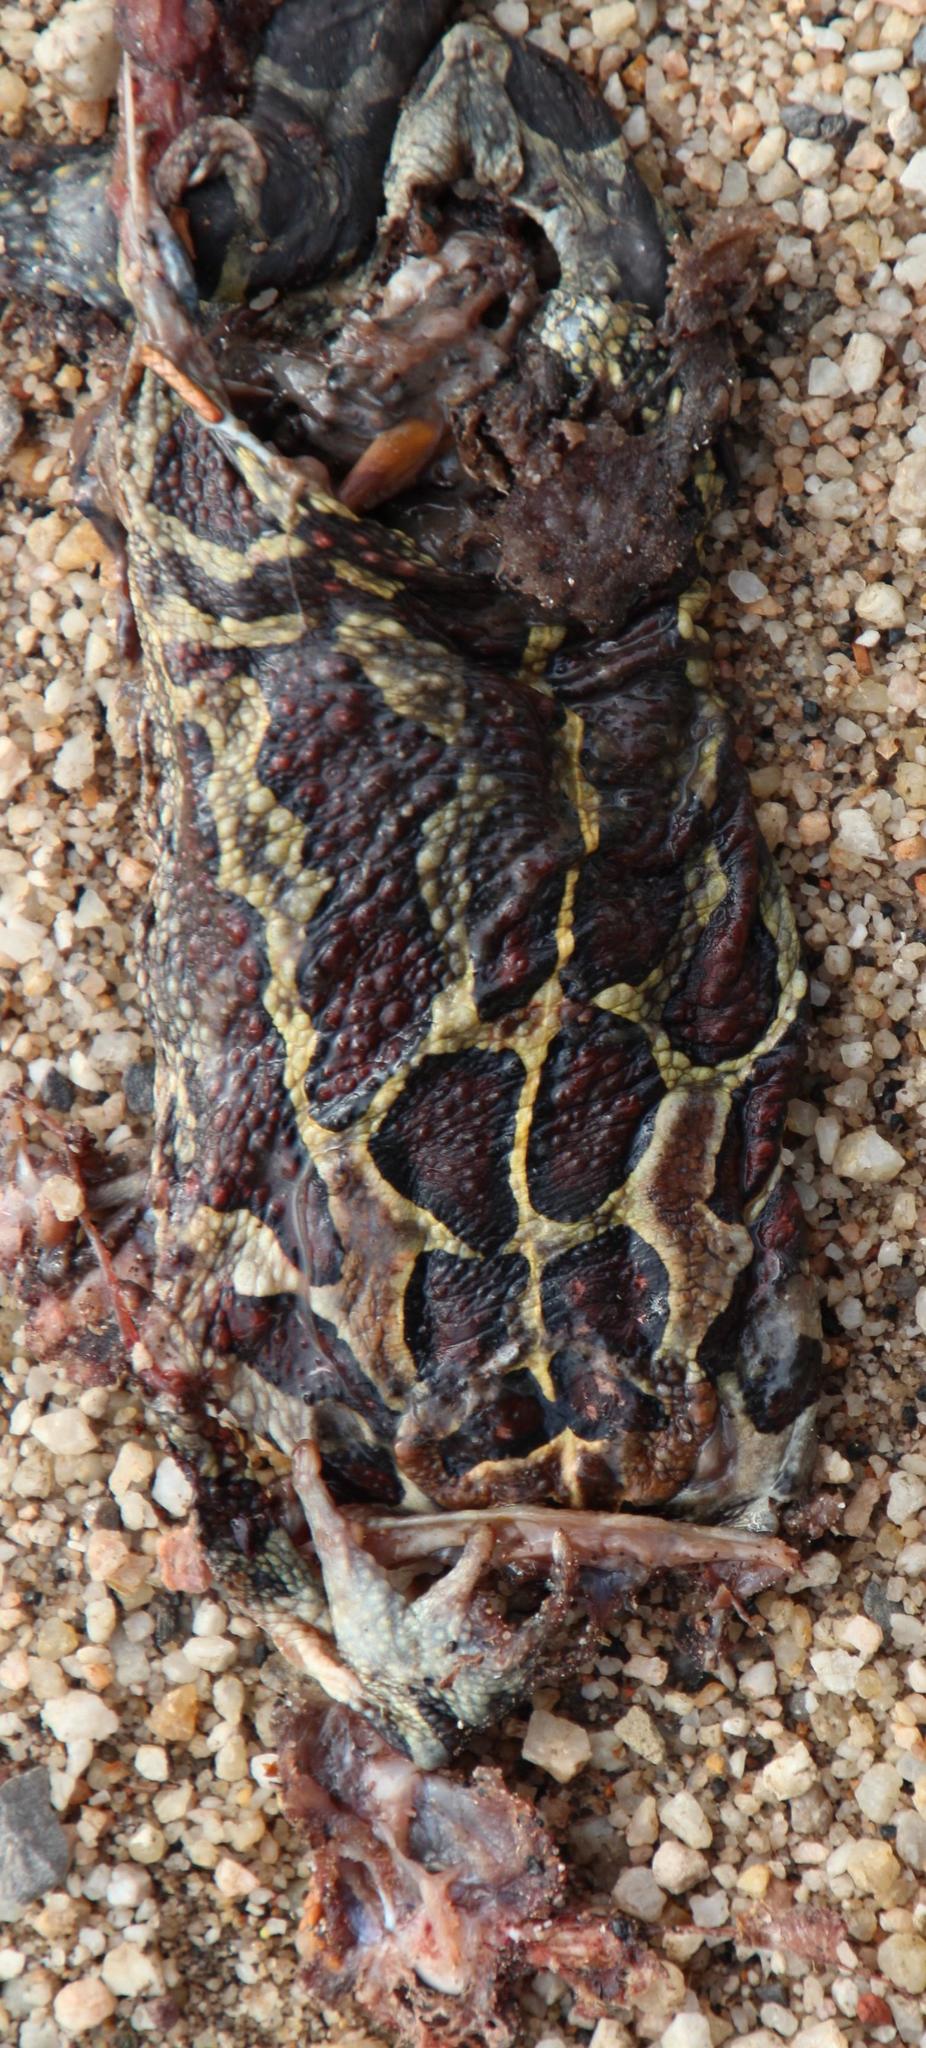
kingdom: Animalia
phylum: Chordata
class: Amphibia
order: Anura
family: Bufonidae
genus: Sclerophrys
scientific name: Sclerophrys pantherina
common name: Panther toad
